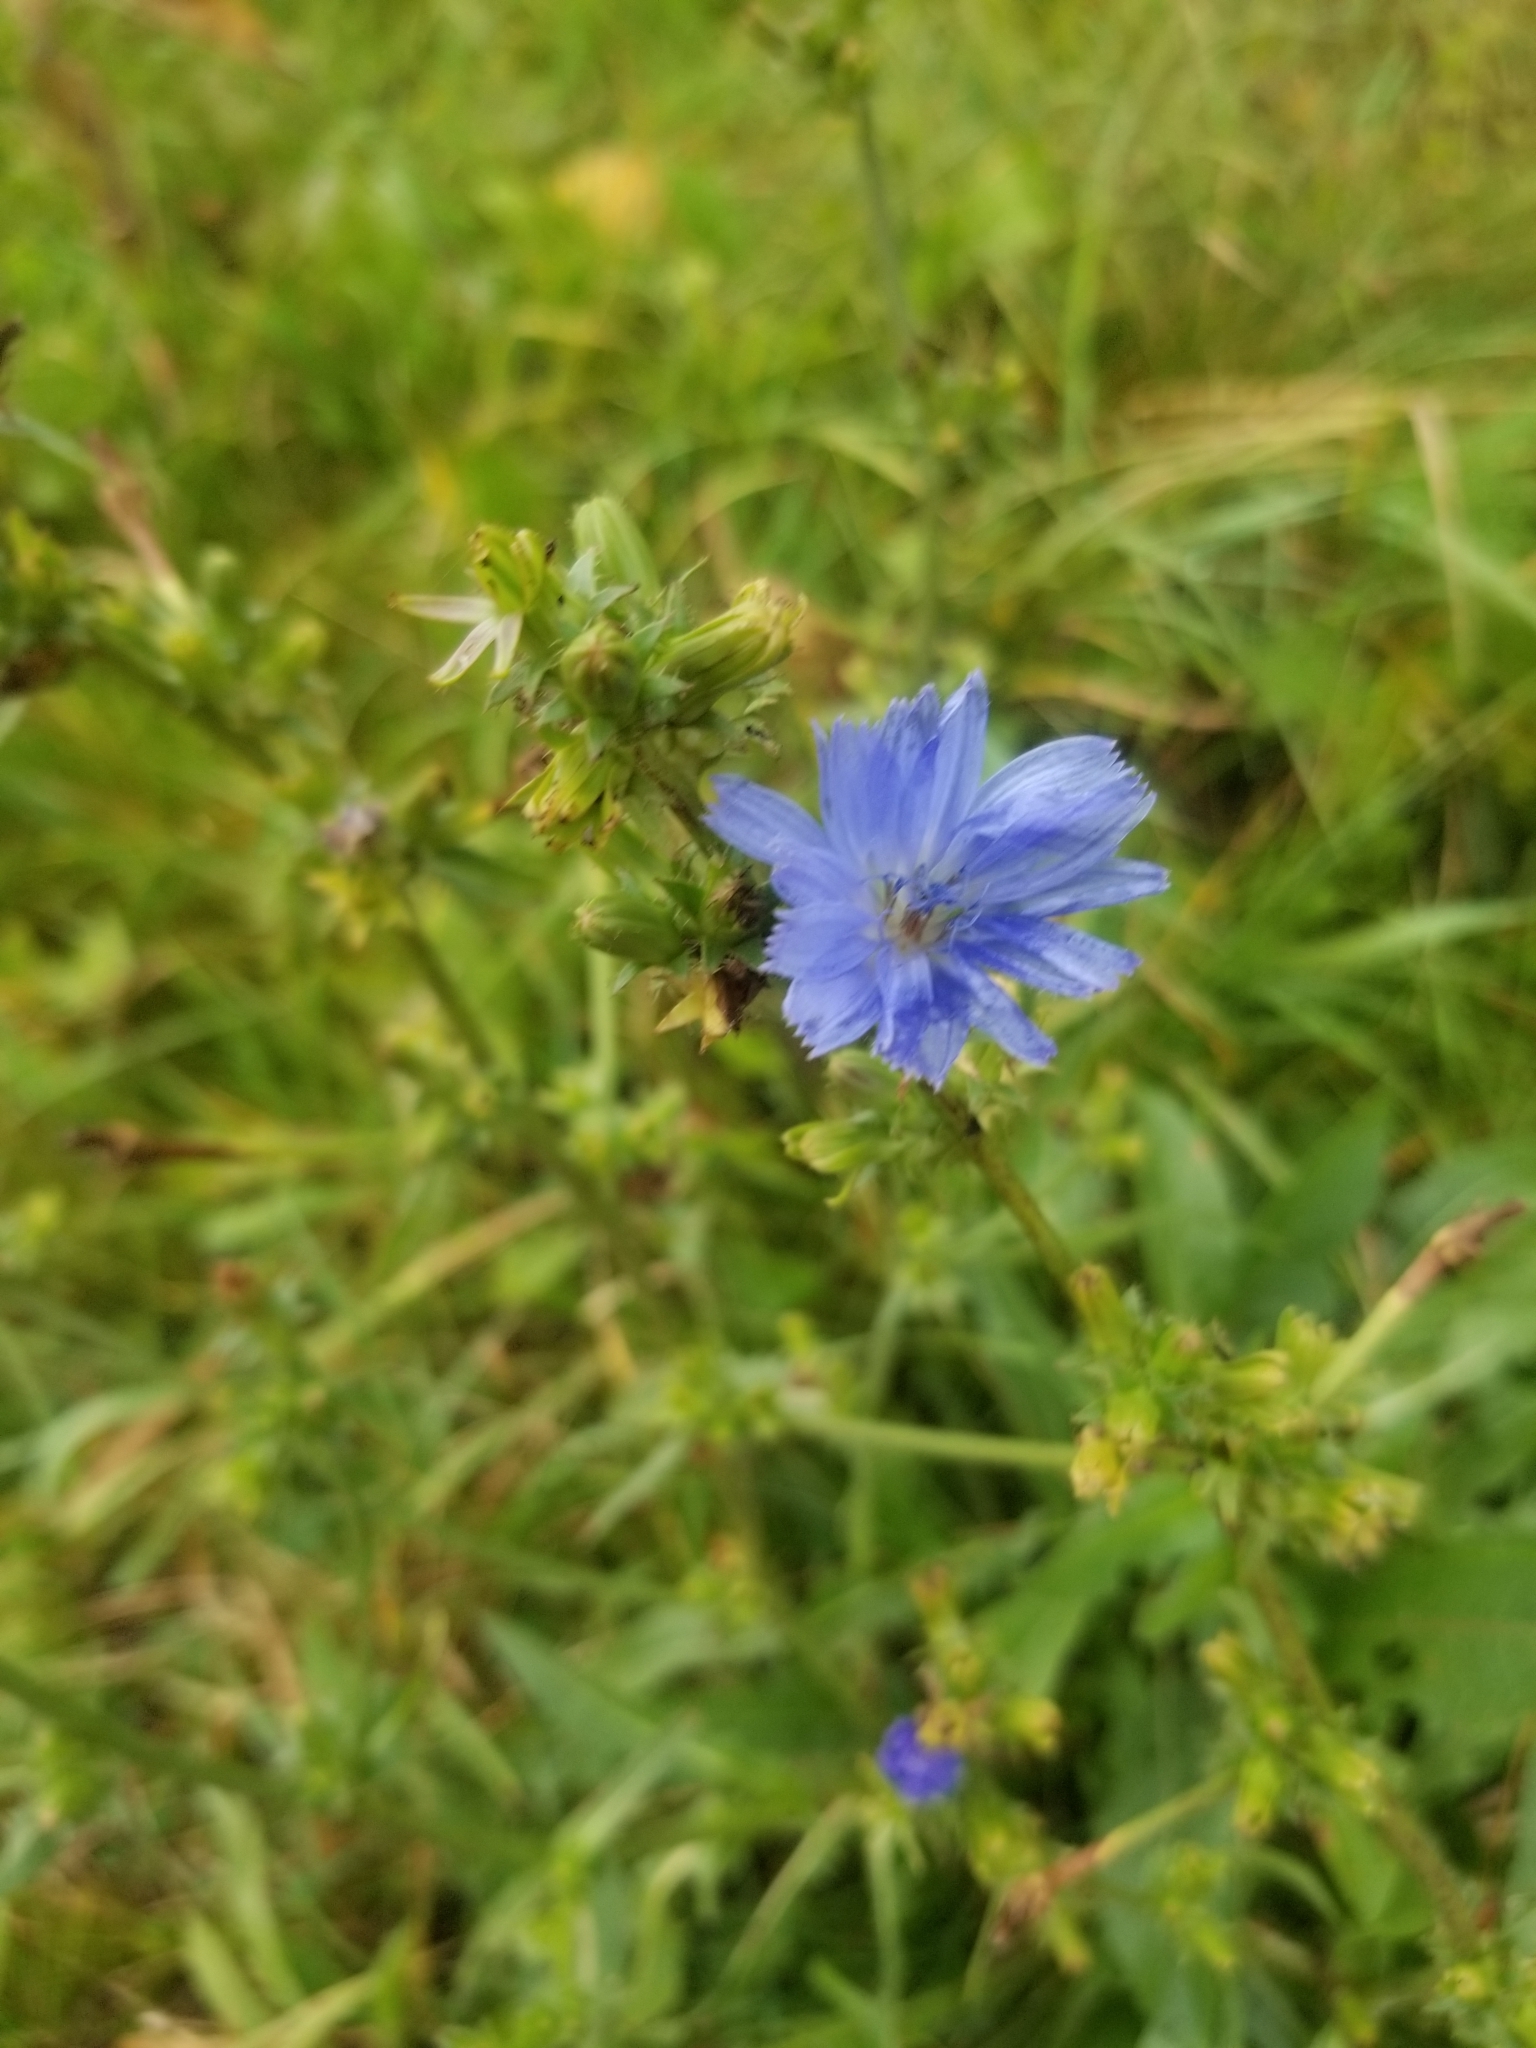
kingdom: Plantae
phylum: Tracheophyta
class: Magnoliopsida
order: Asterales
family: Asteraceae
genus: Cichorium
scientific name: Cichorium intybus
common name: Chicory
